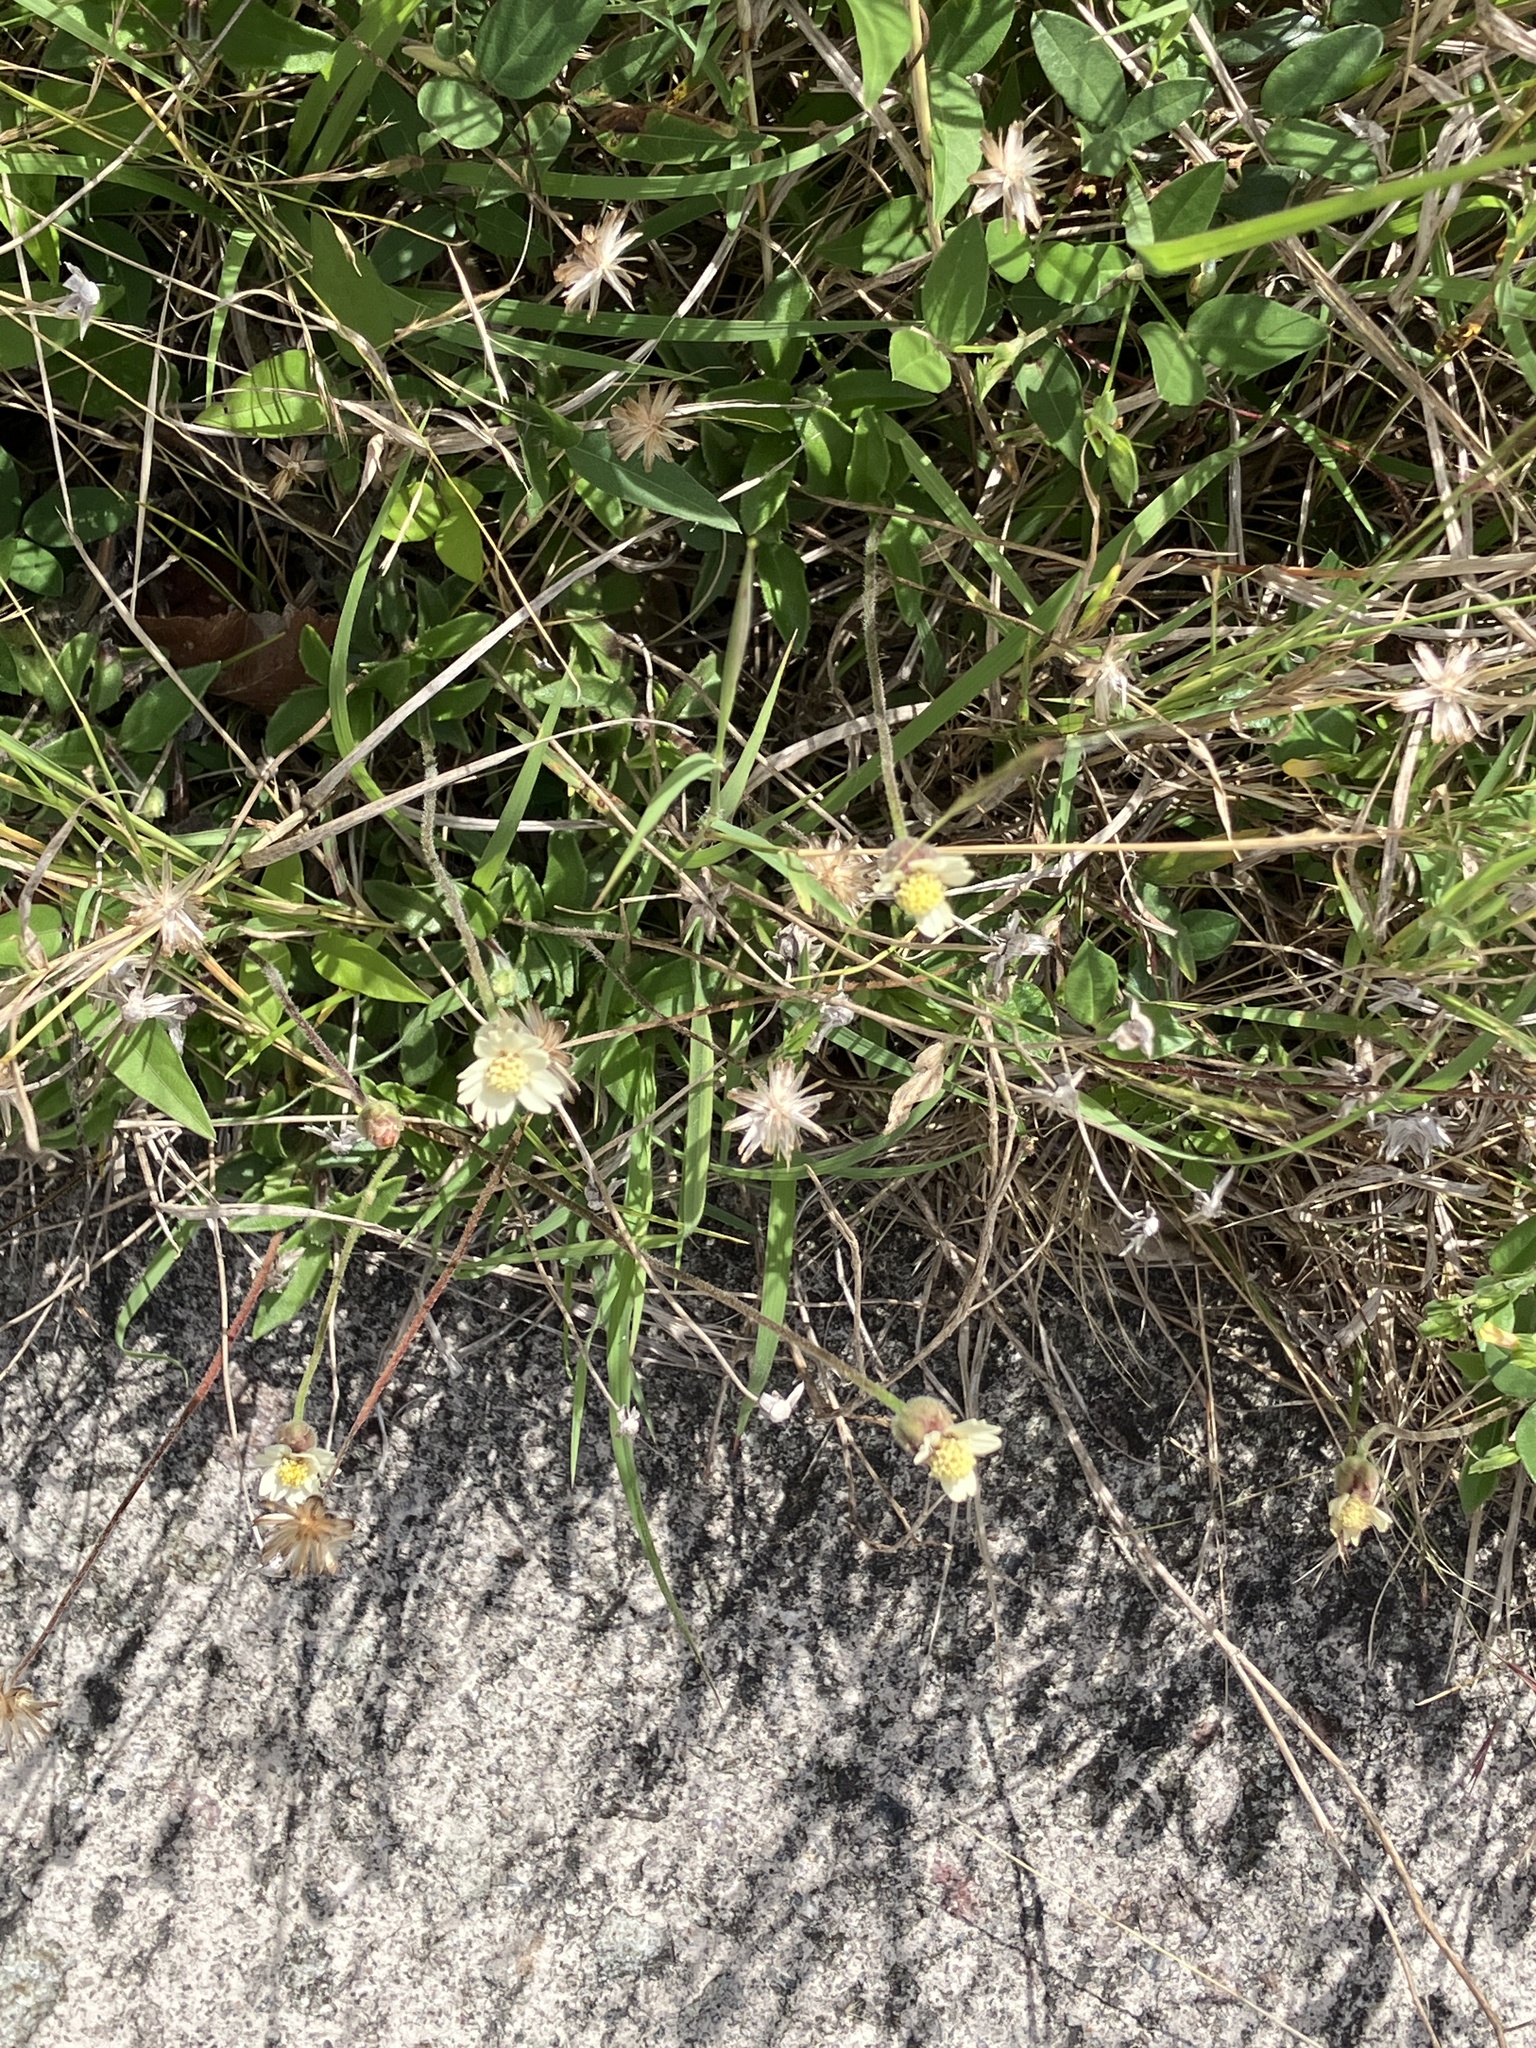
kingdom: Plantae
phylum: Tracheophyta
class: Magnoliopsida
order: Asterales
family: Asteraceae
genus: Tridax
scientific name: Tridax procumbens
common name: Coatbuttons
